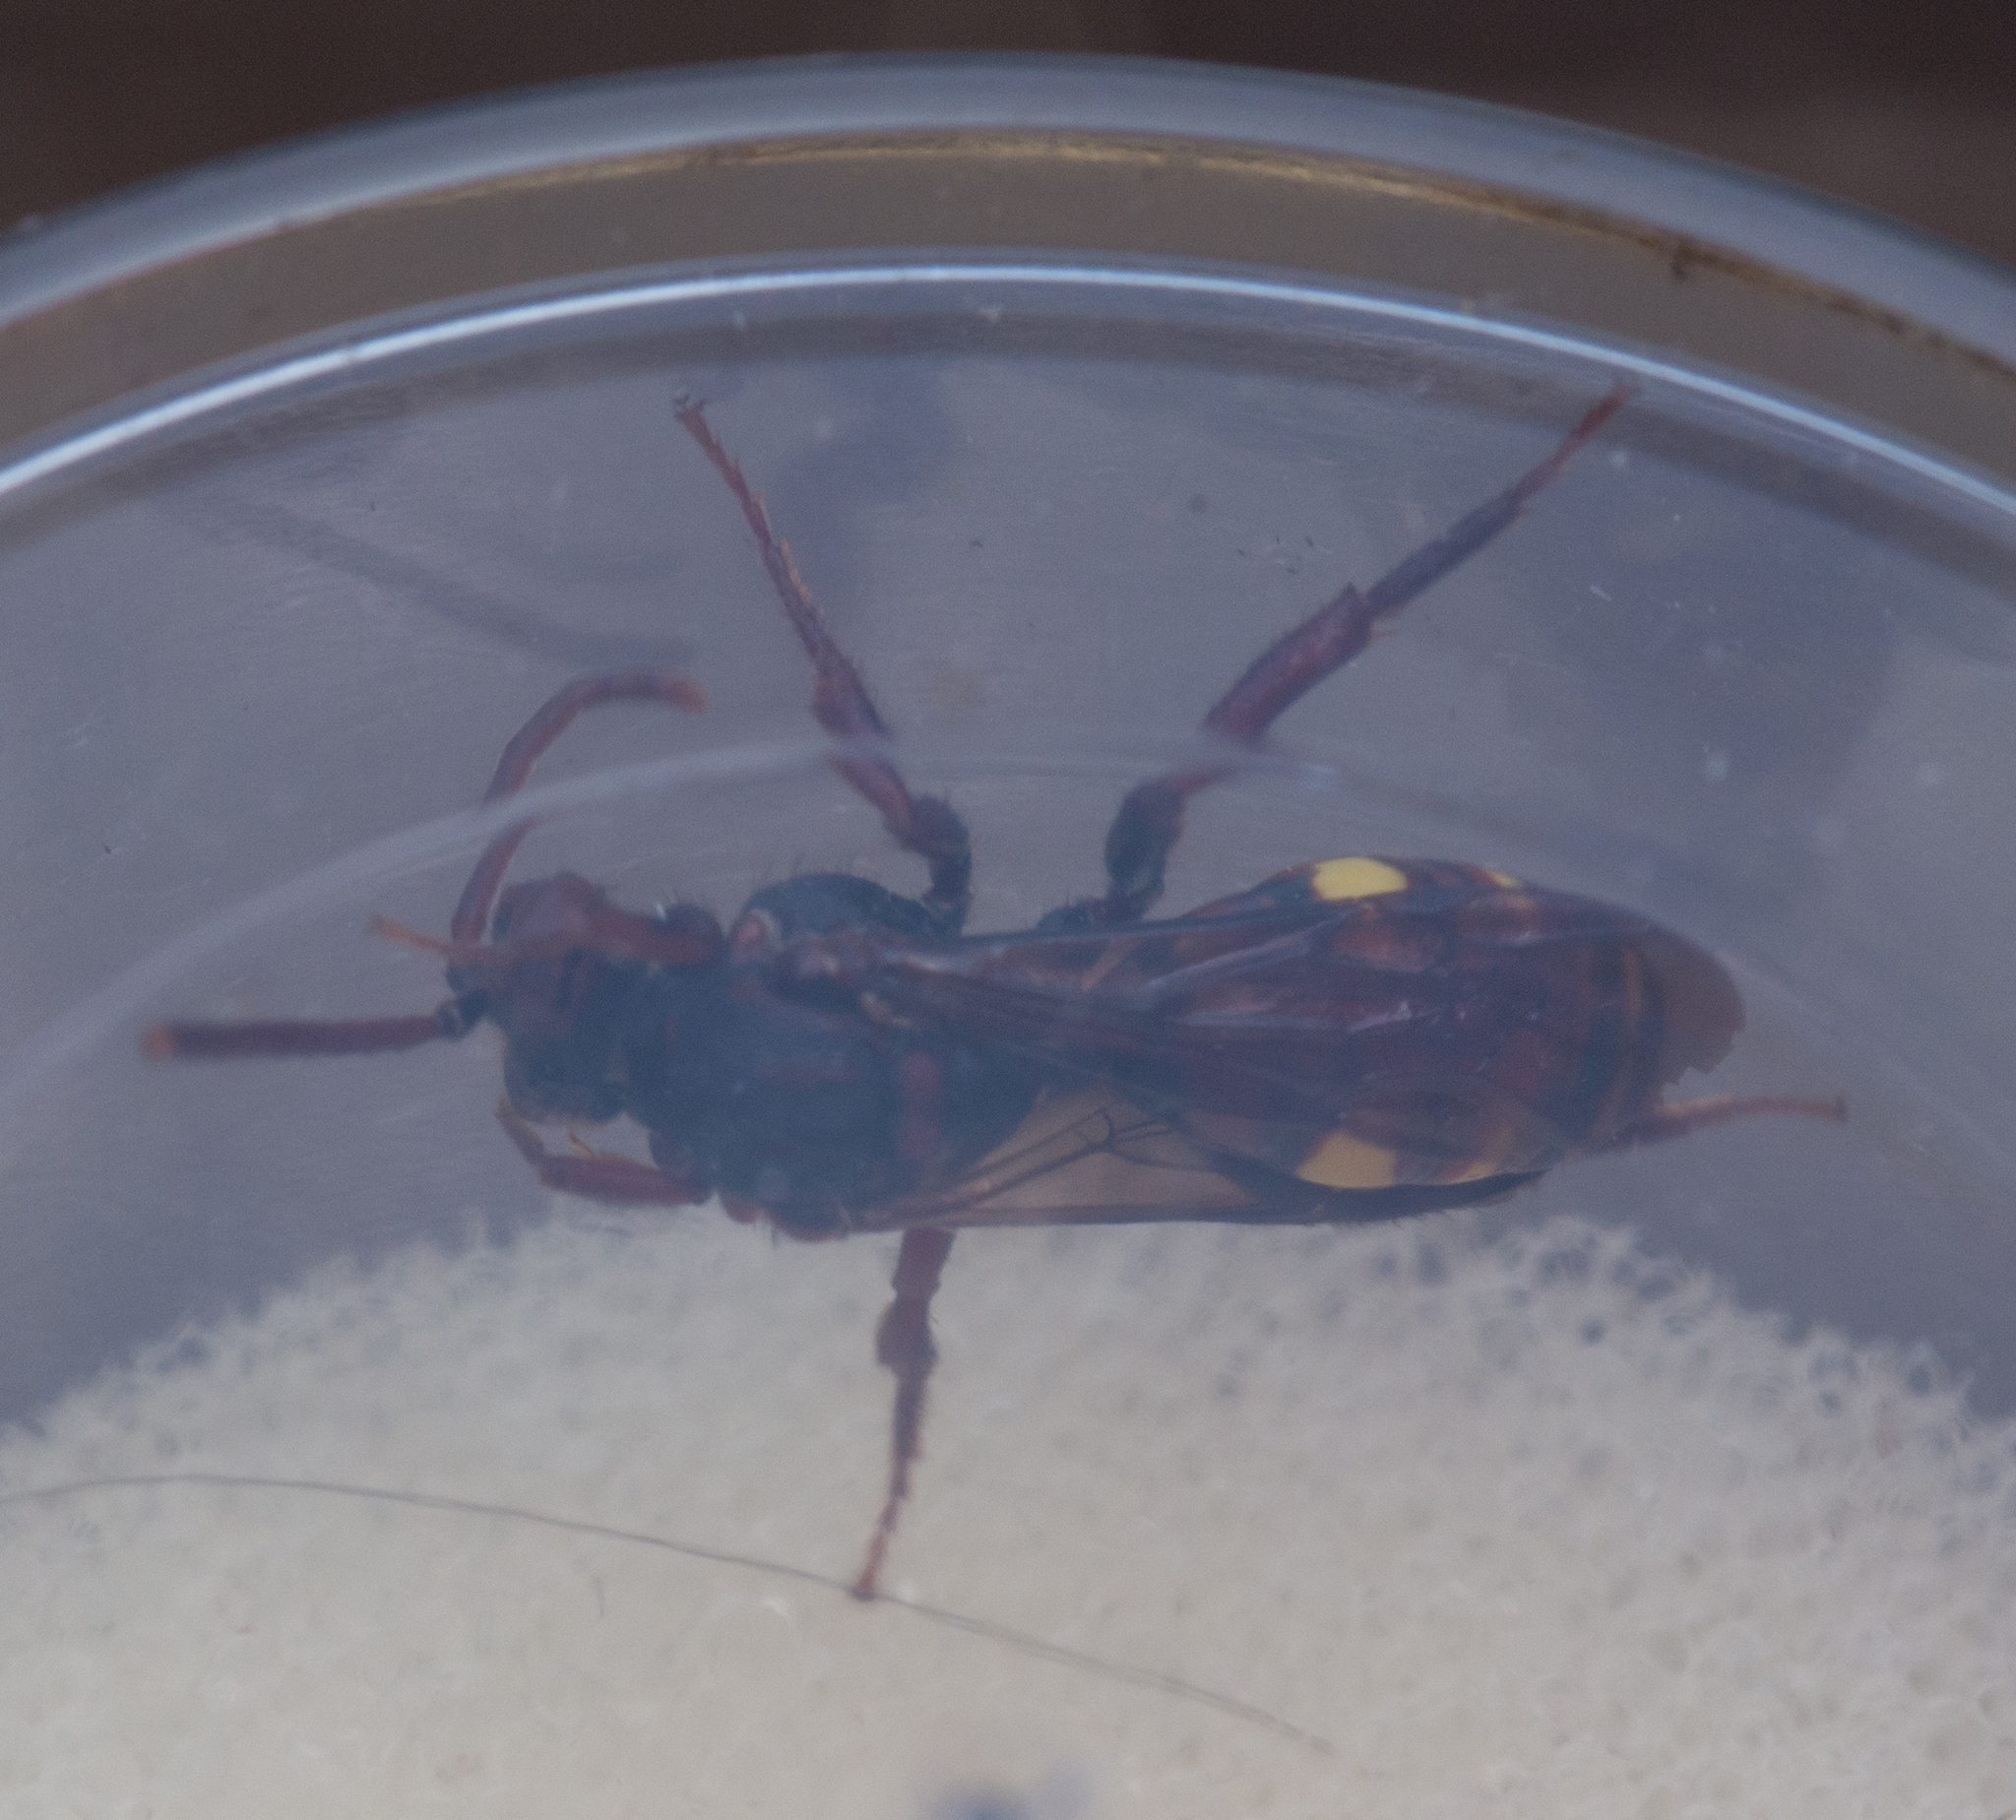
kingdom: Animalia
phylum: Arthropoda
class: Insecta
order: Hymenoptera
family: Apidae
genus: Nomada
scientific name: Nomada
